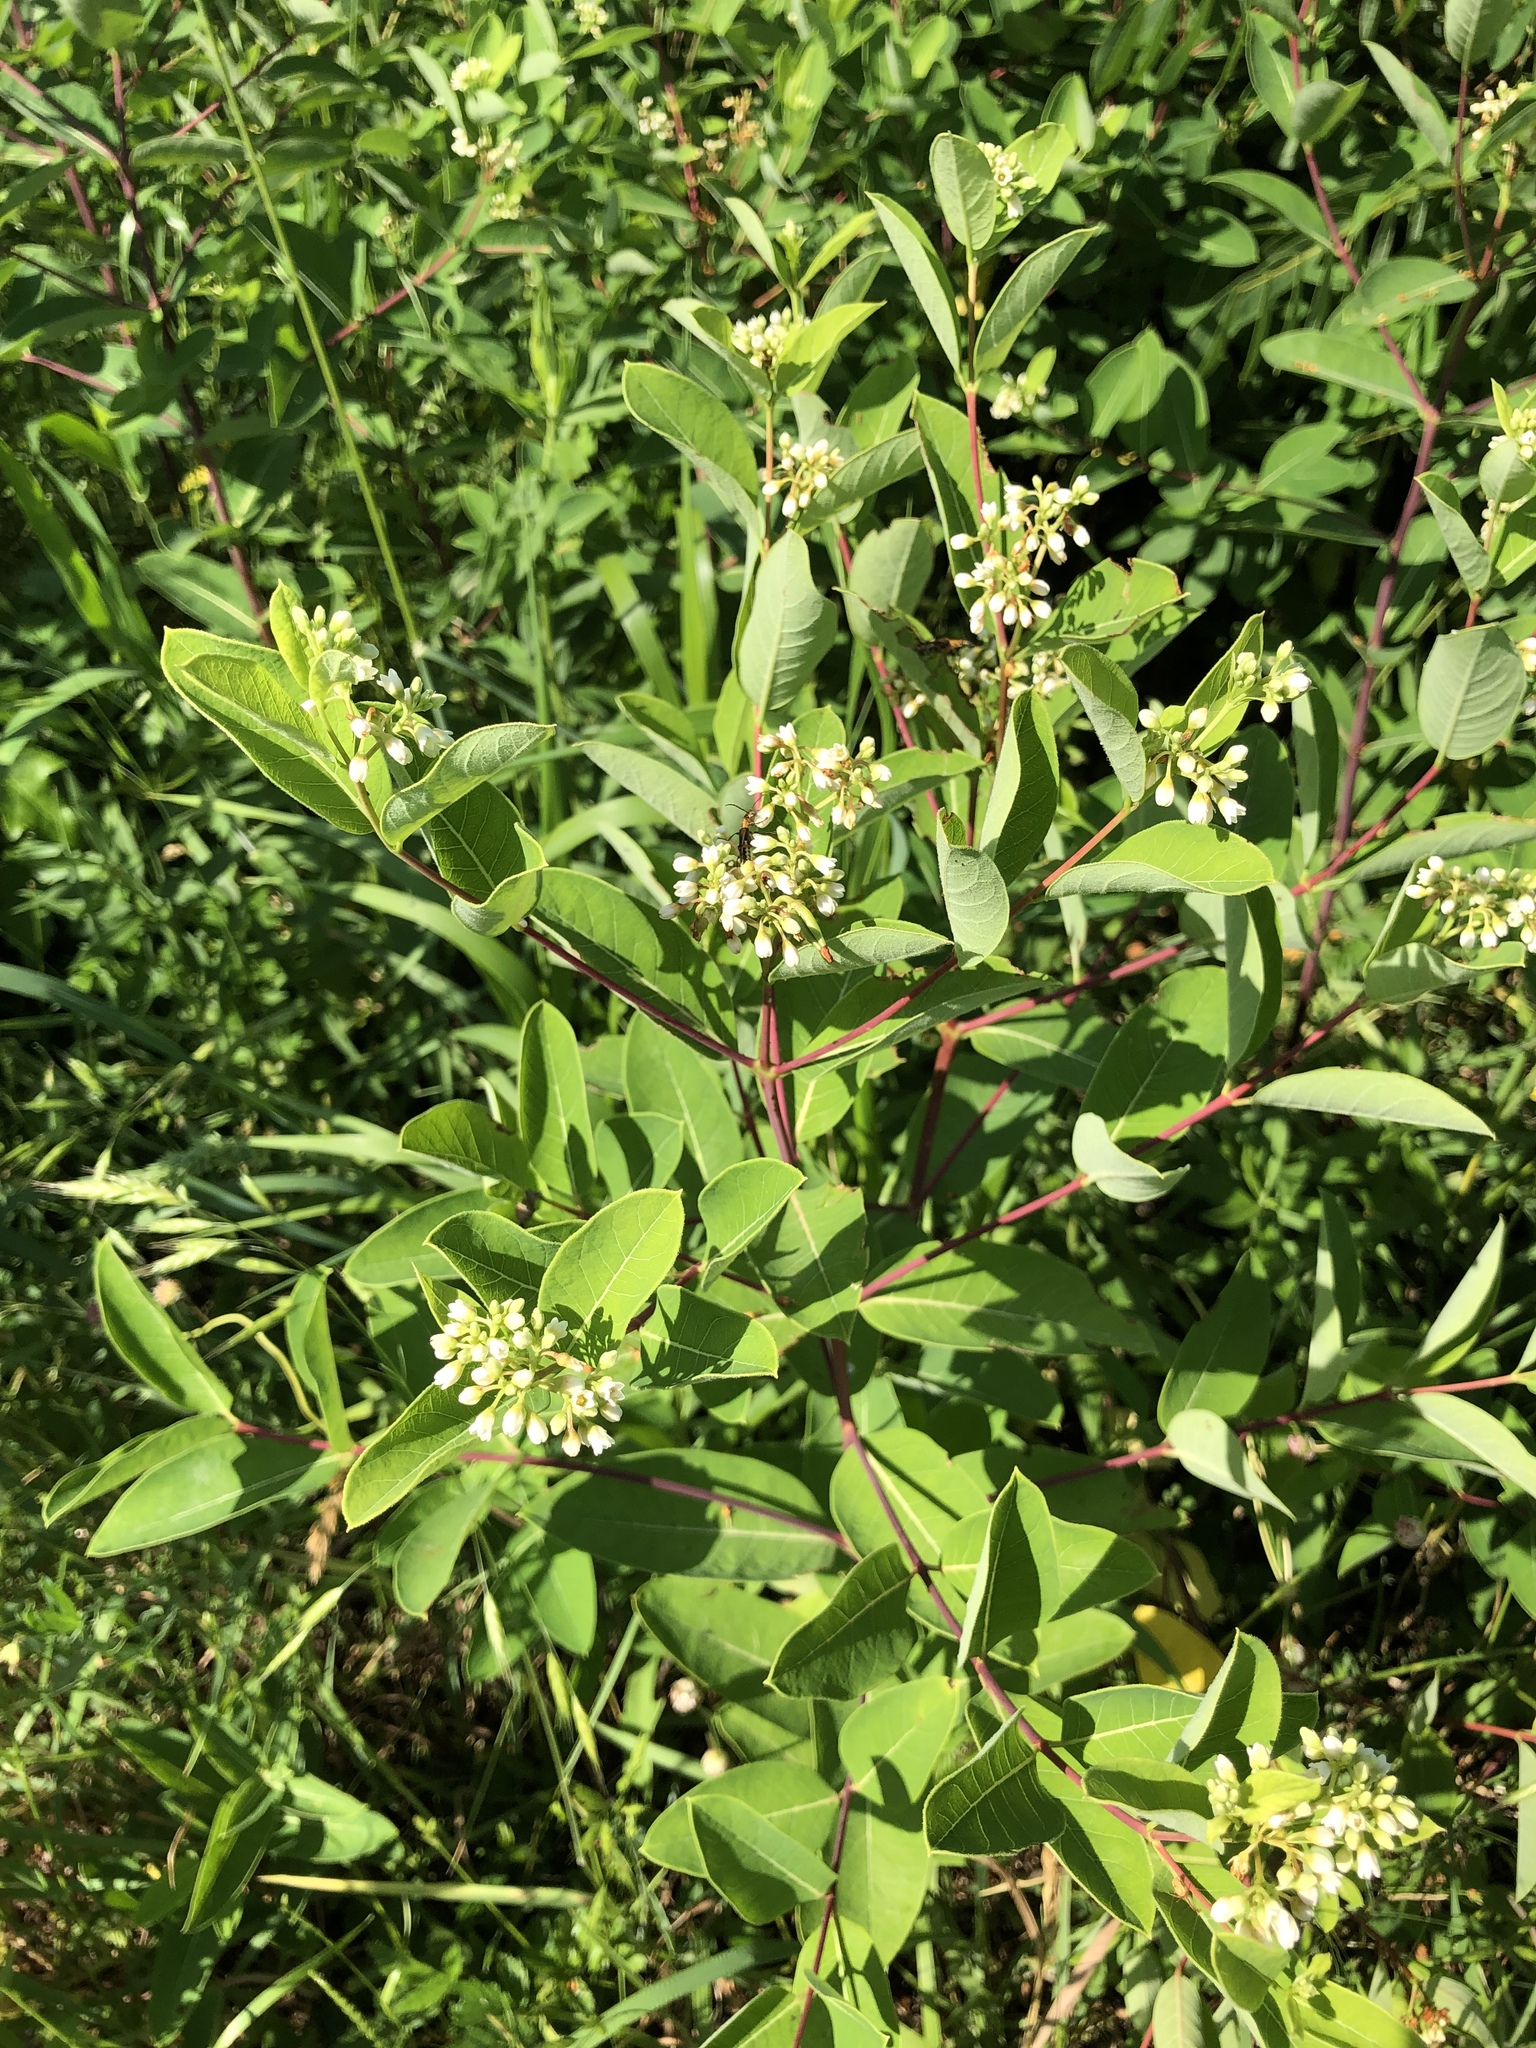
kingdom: Plantae
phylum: Tracheophyta
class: Magnoliopsida
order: Gentianales
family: Apocynaceae
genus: Apocynum
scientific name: Apocynum cannabinum
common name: Hemp dogbane
